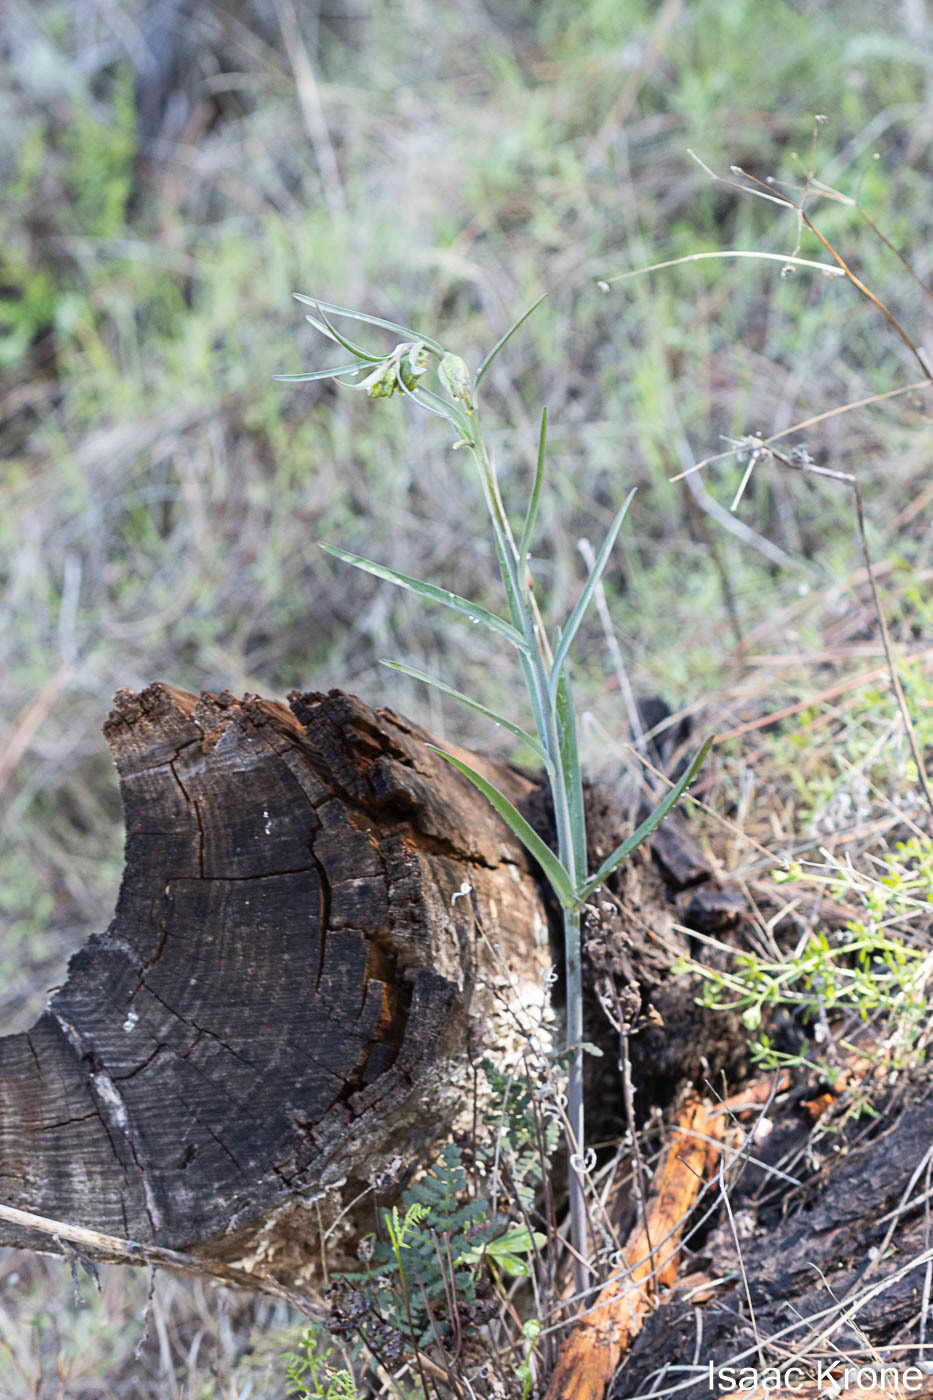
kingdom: Plantae
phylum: Tracheophyta
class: Liliopsida
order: Liliales
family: Liliaceae
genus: Fritillaria
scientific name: Fritillaria affinis
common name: Ojai fritillary
